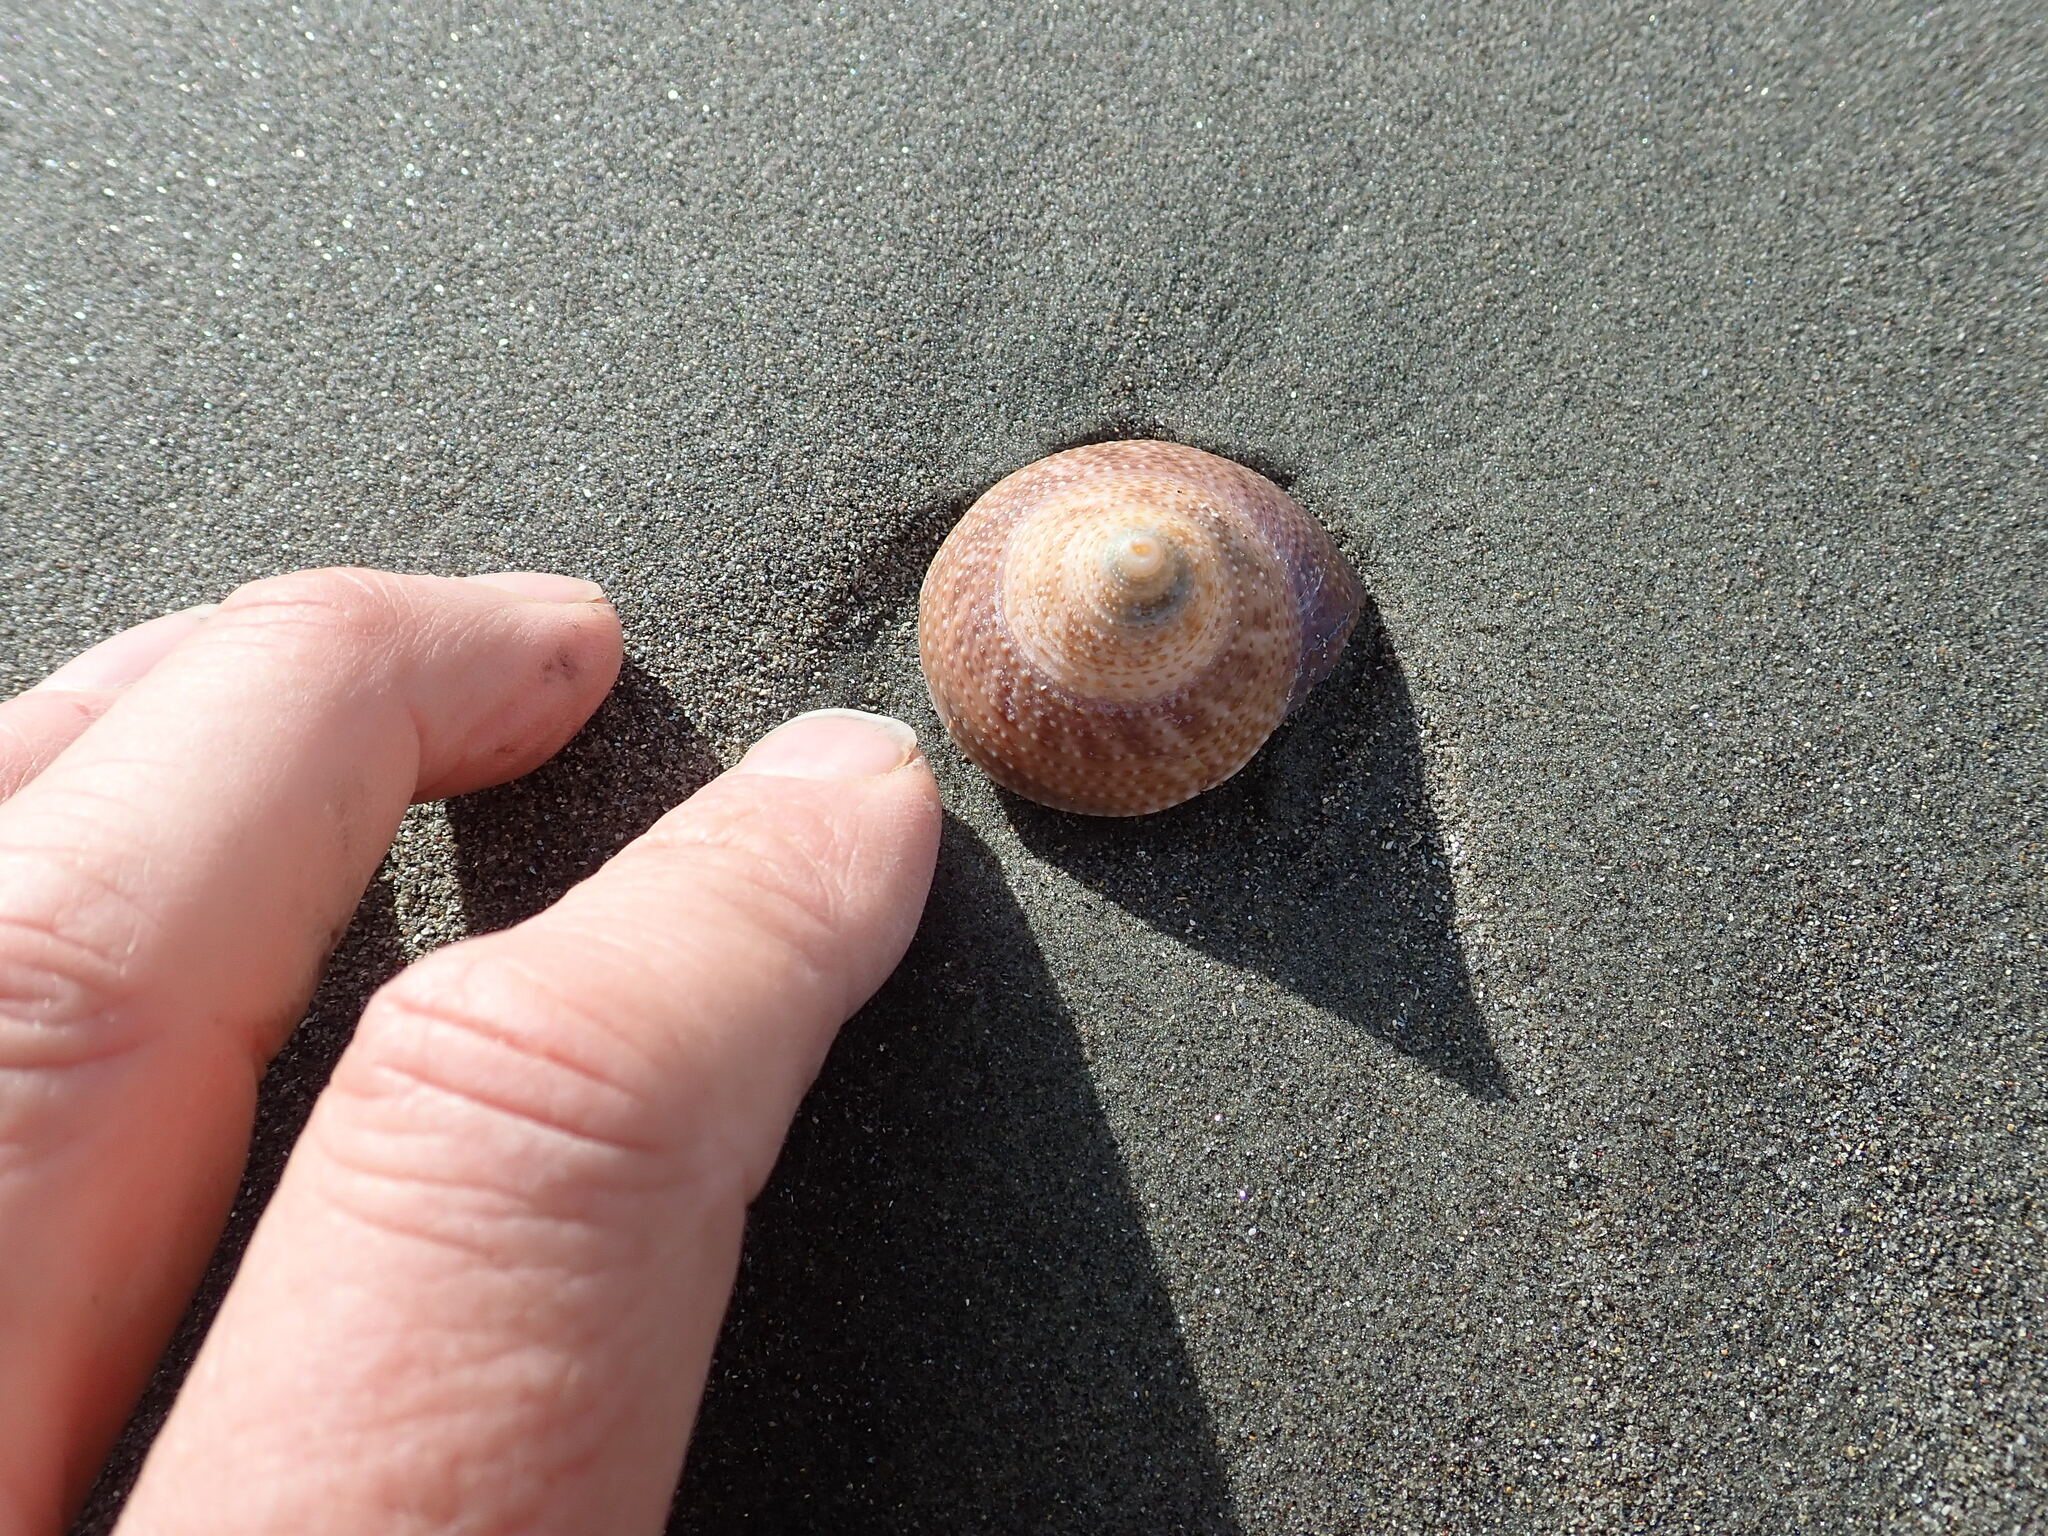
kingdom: Animalia
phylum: Mollusca
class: Gastropoda
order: Trochida
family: Calliostomatidae
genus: Maurea
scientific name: Maurea selecta
